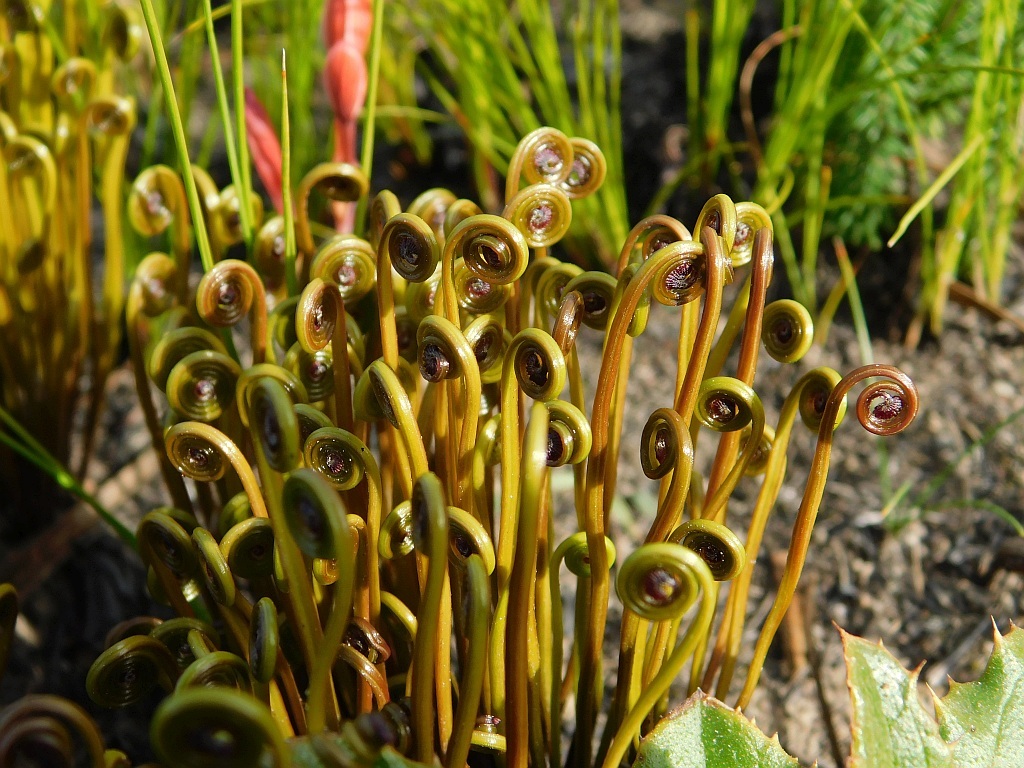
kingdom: Plantae
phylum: Tracheophyta
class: Polypodiopsida
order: Schizaeales
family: Schizaeaceae
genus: Schizaea
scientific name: Schizaea pectinata
